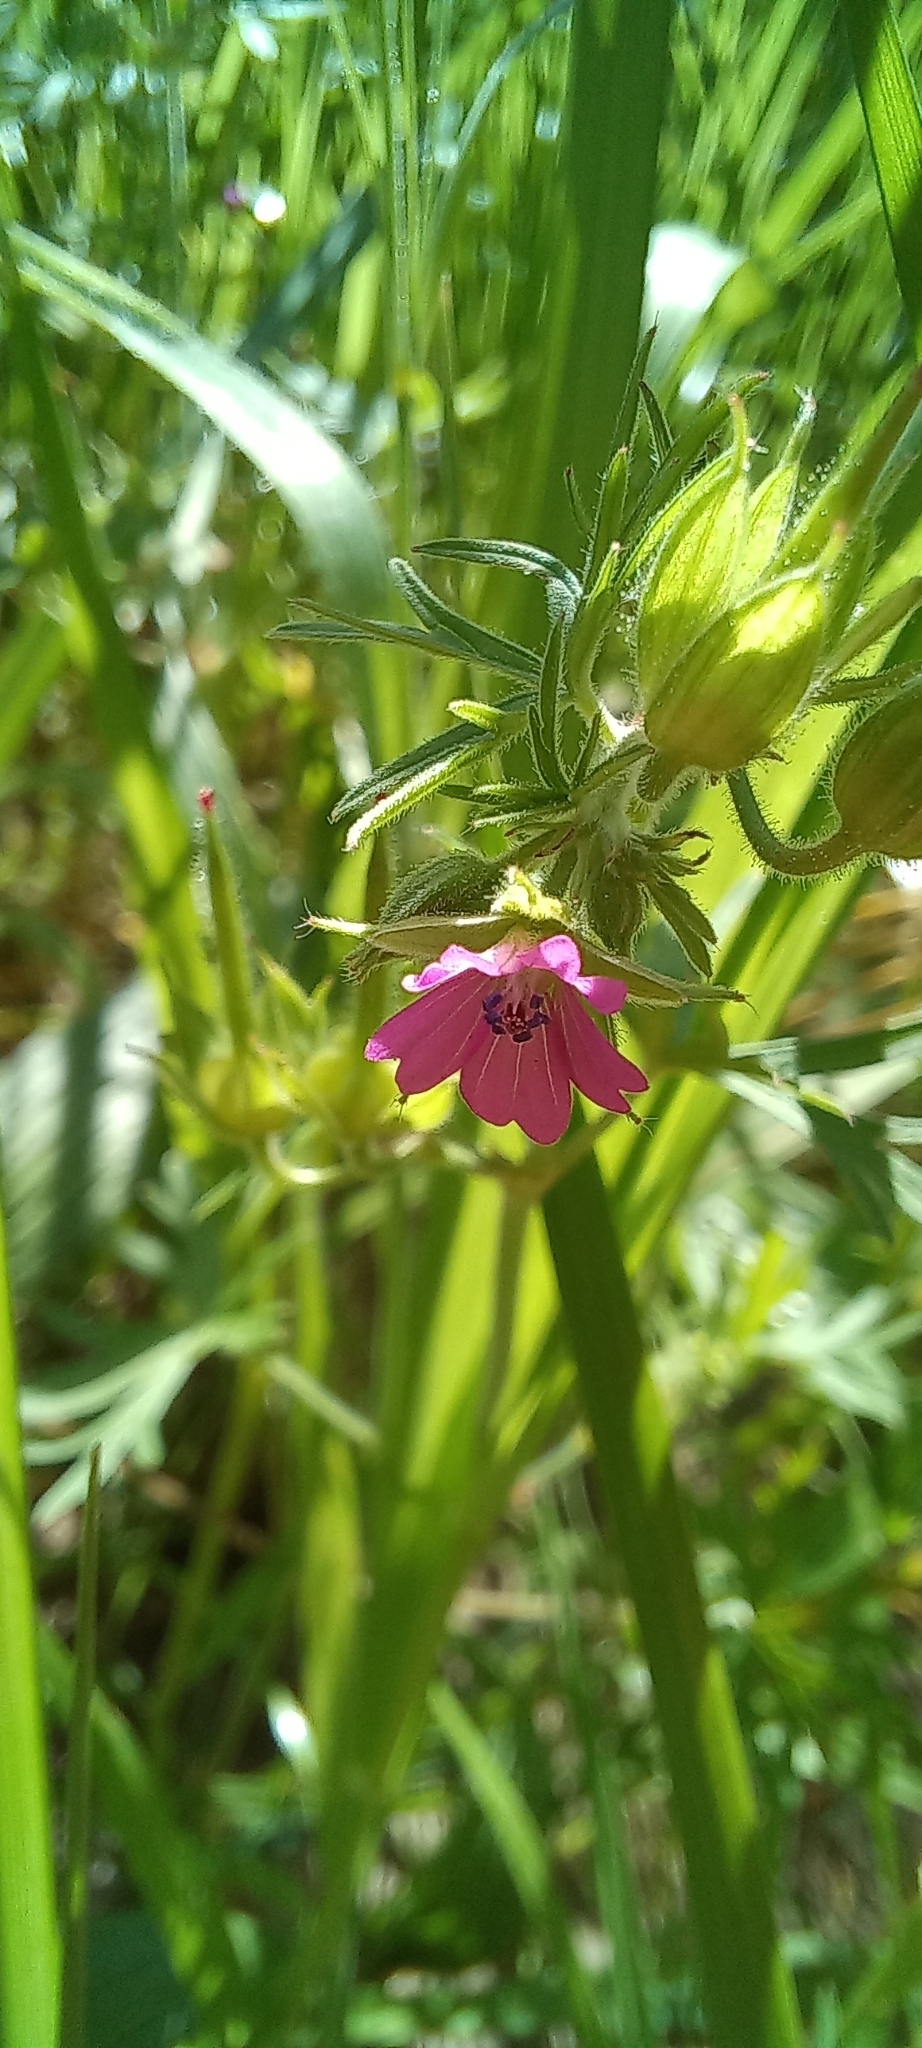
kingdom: Plantae
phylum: Tracheophyta
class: Magnoliopsida
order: Geraniales
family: Geraniaceae
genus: Geranium
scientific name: Geranium dissectum
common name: Cut-leaved crane's-bill
